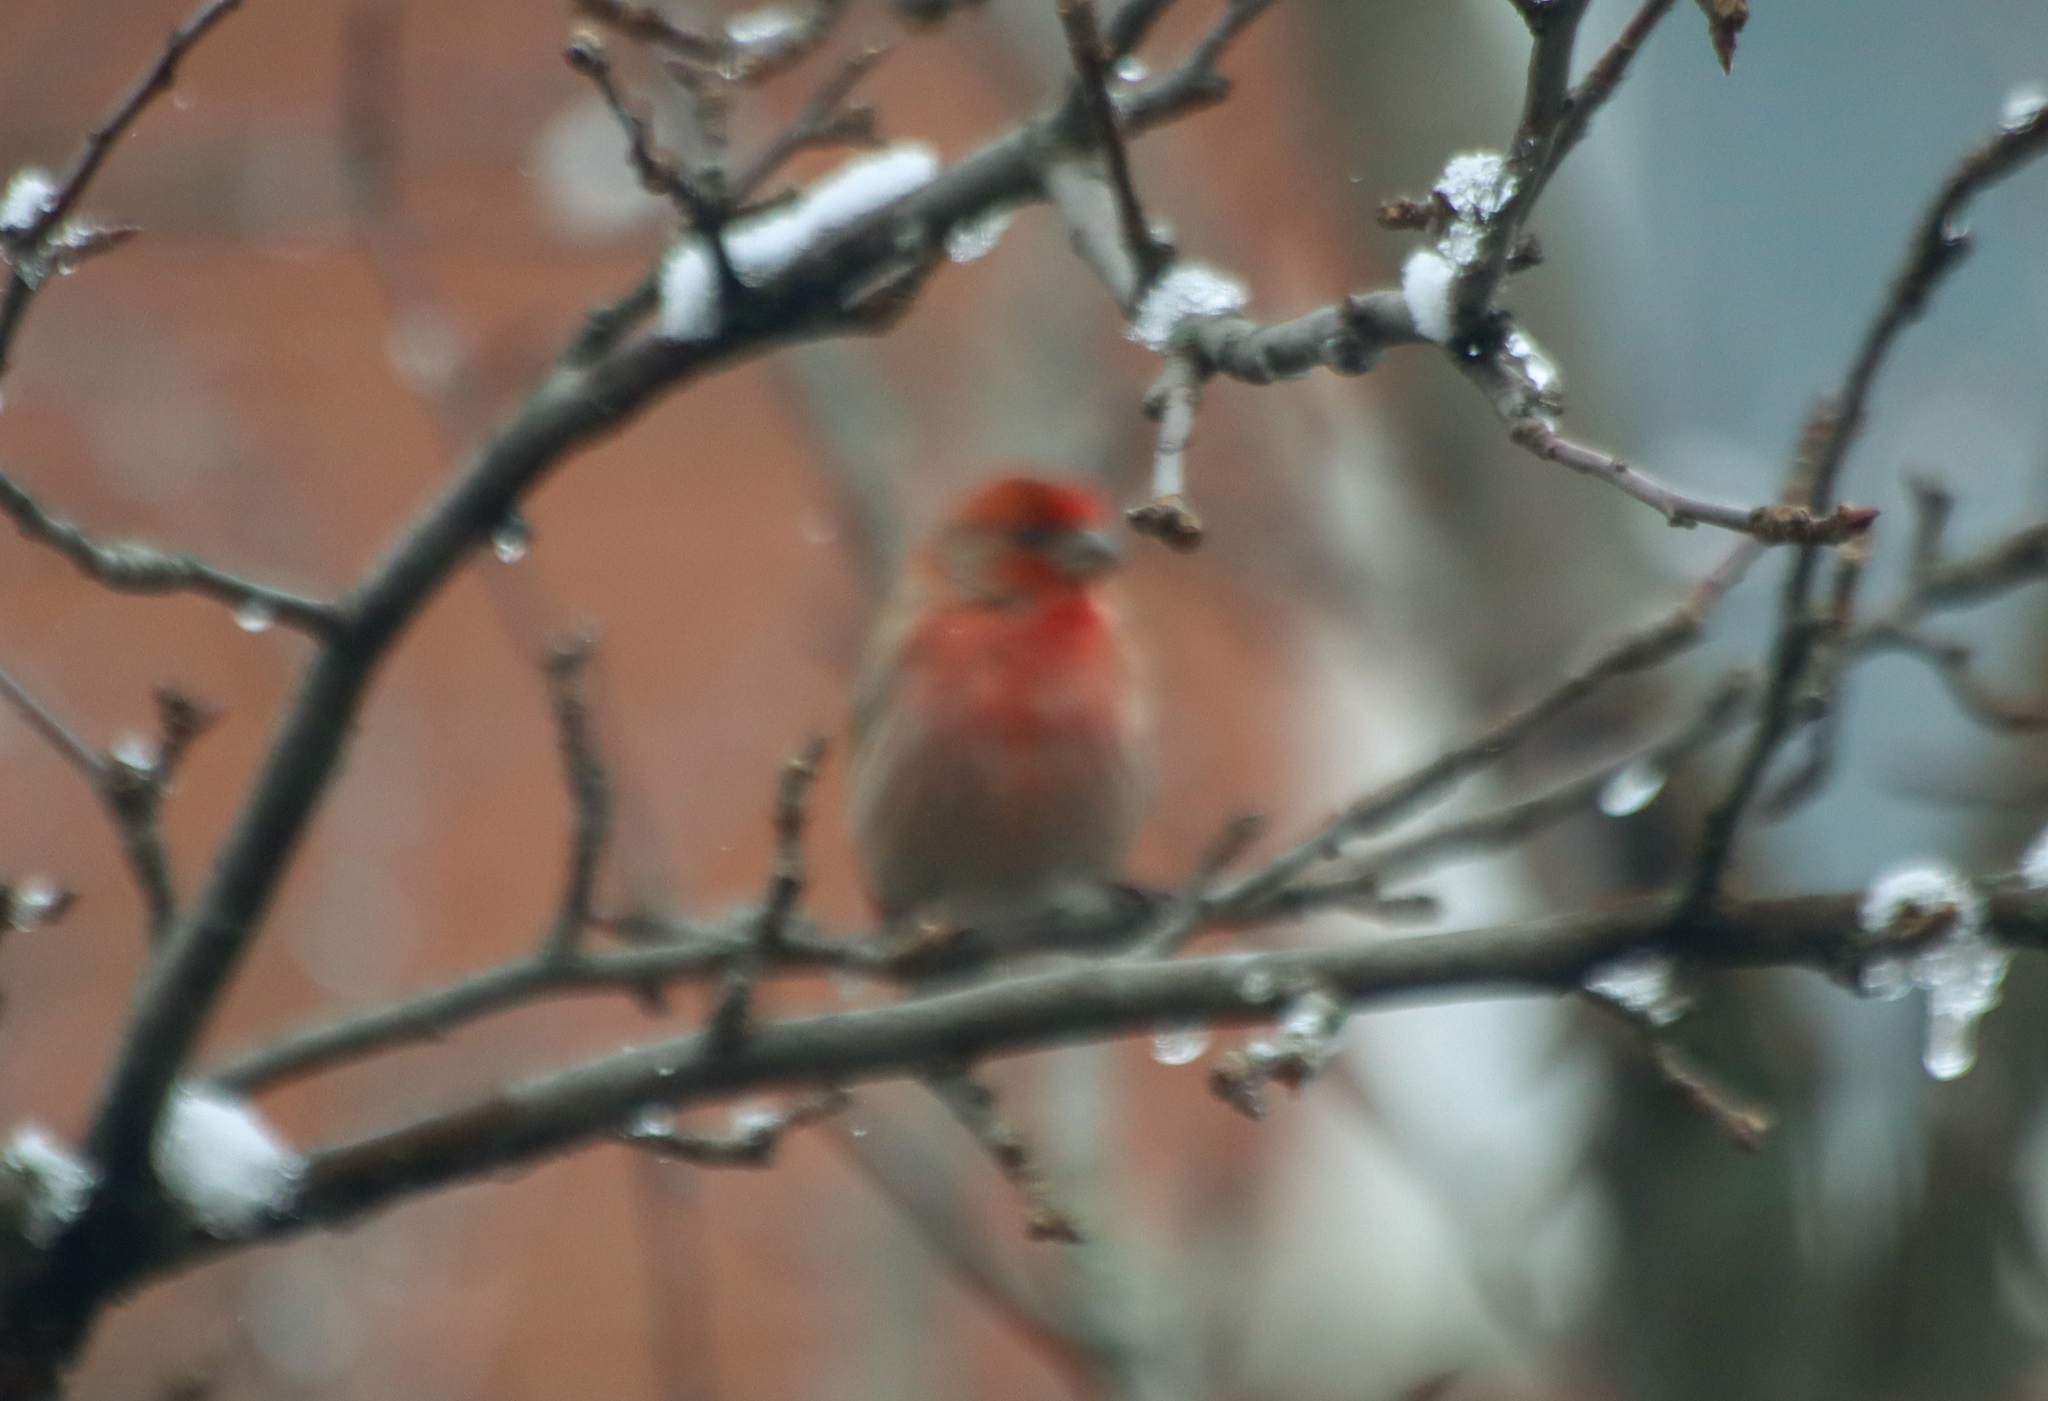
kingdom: Animalia
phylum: Chordata
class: Aves
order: Passeriformes
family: Fringillidae
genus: Haemorhous
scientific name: Haemorhous mexicanus
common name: House finch
